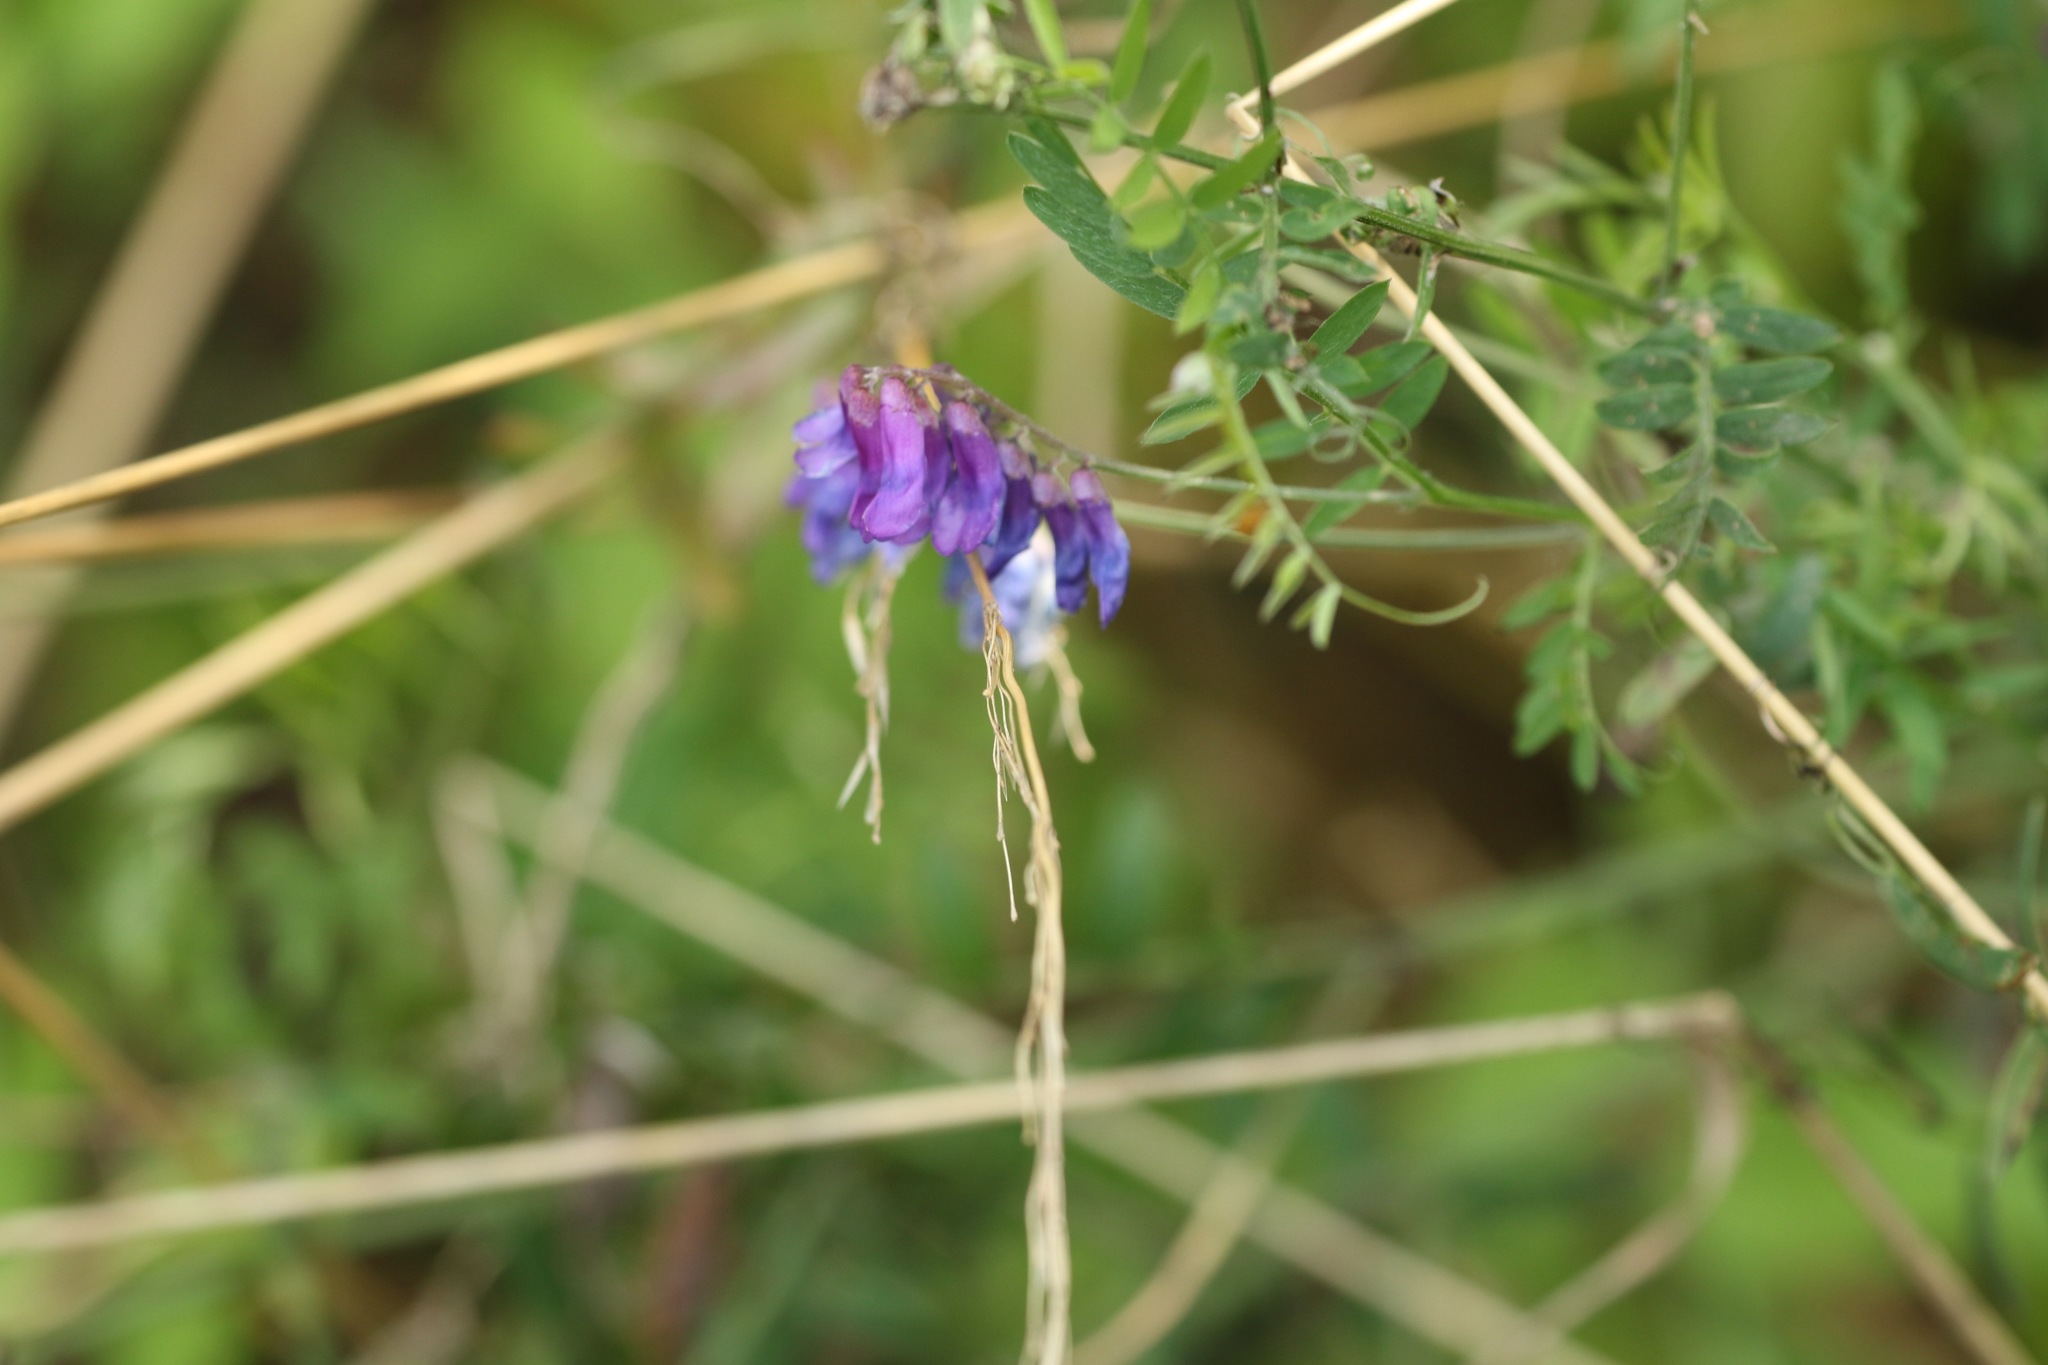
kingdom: Plantae
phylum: Tracheophyta
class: Magnoliopsida
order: Fabales
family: Fabaceae
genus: Vicia
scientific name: Vicia cracca
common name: Bird vetch
